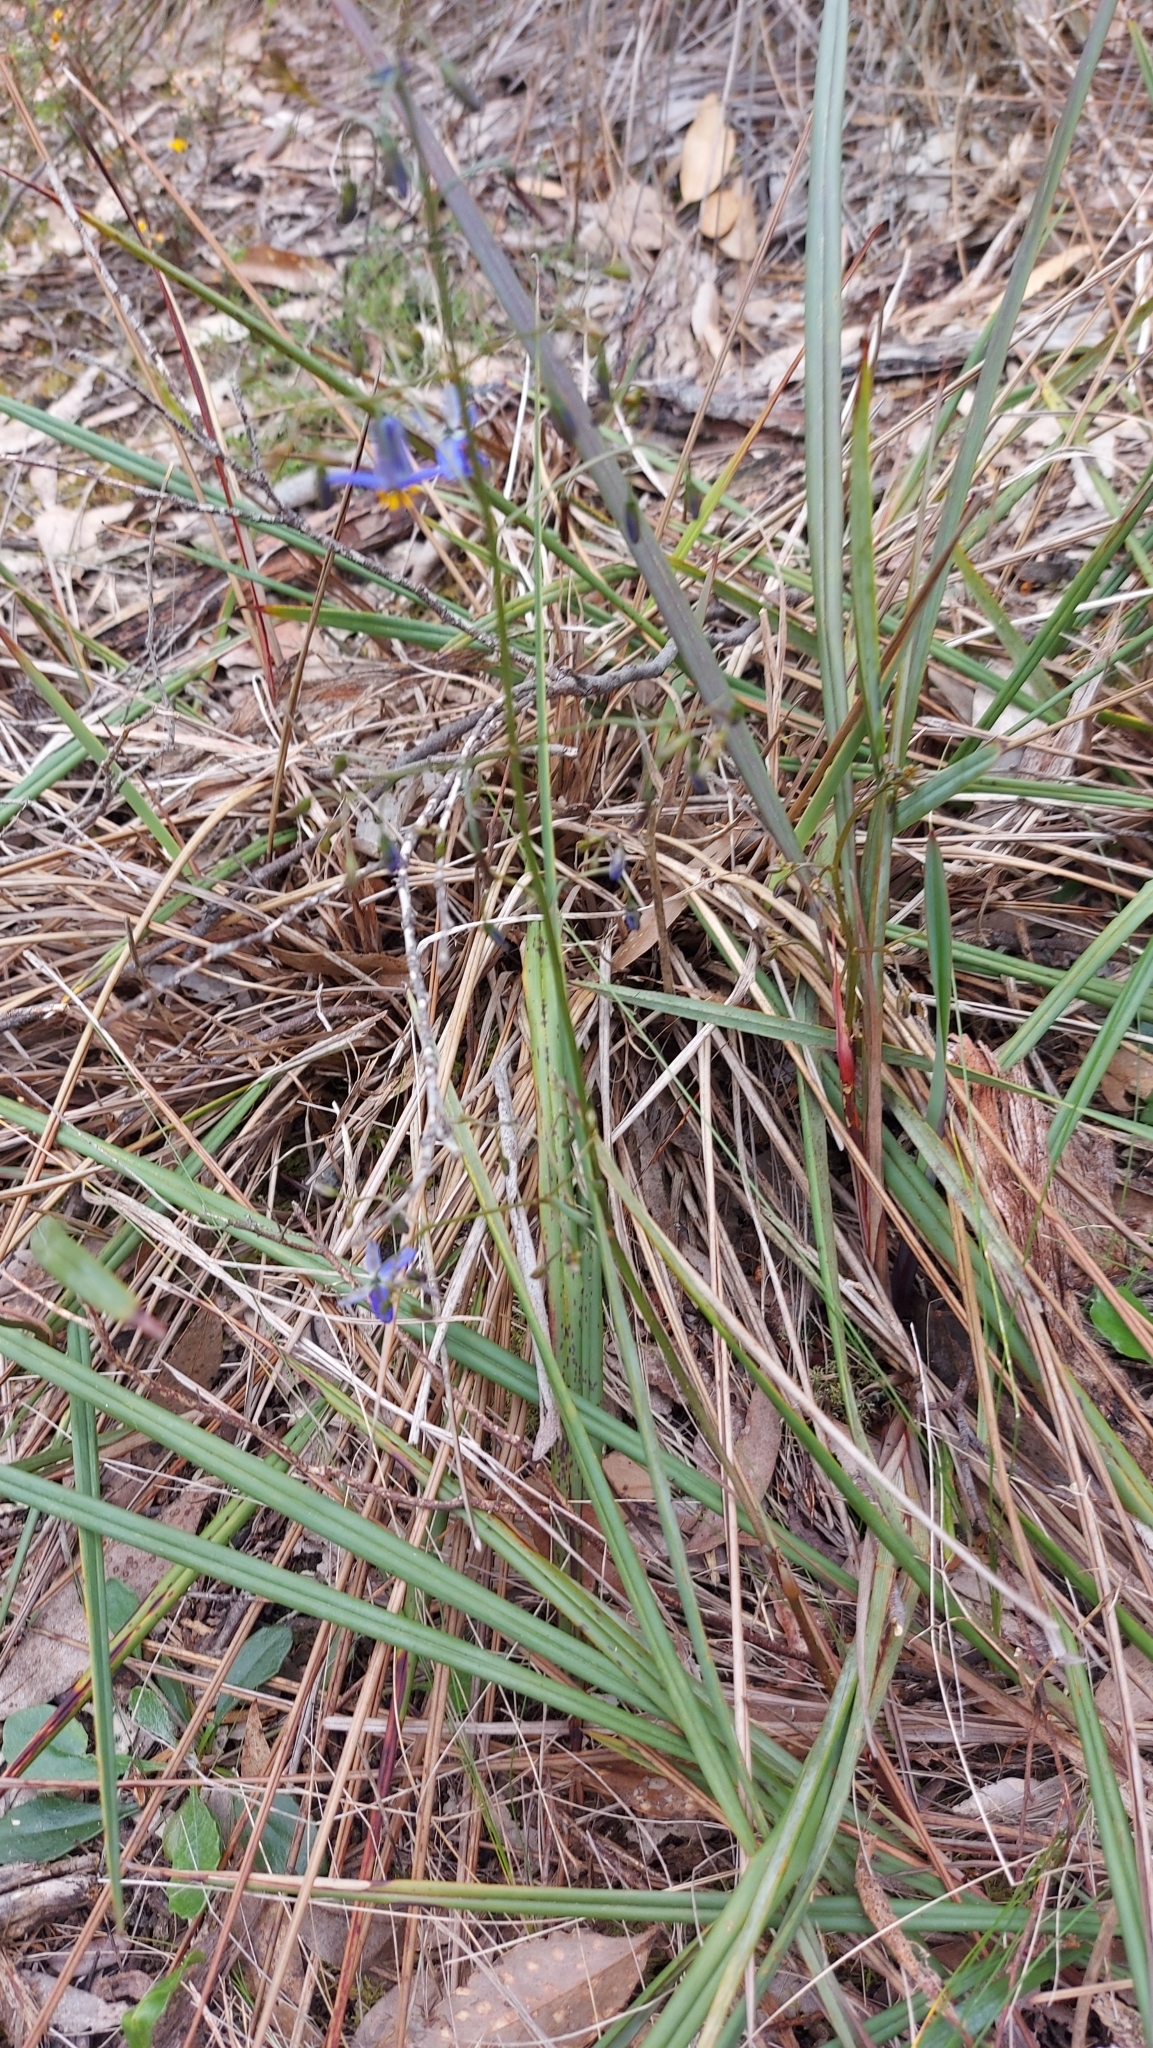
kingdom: Plantae
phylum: Tracheophyta
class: Liliopsida
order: Asparagales
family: Asphodelaceae
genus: Dianella
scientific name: Dianella revoluta
